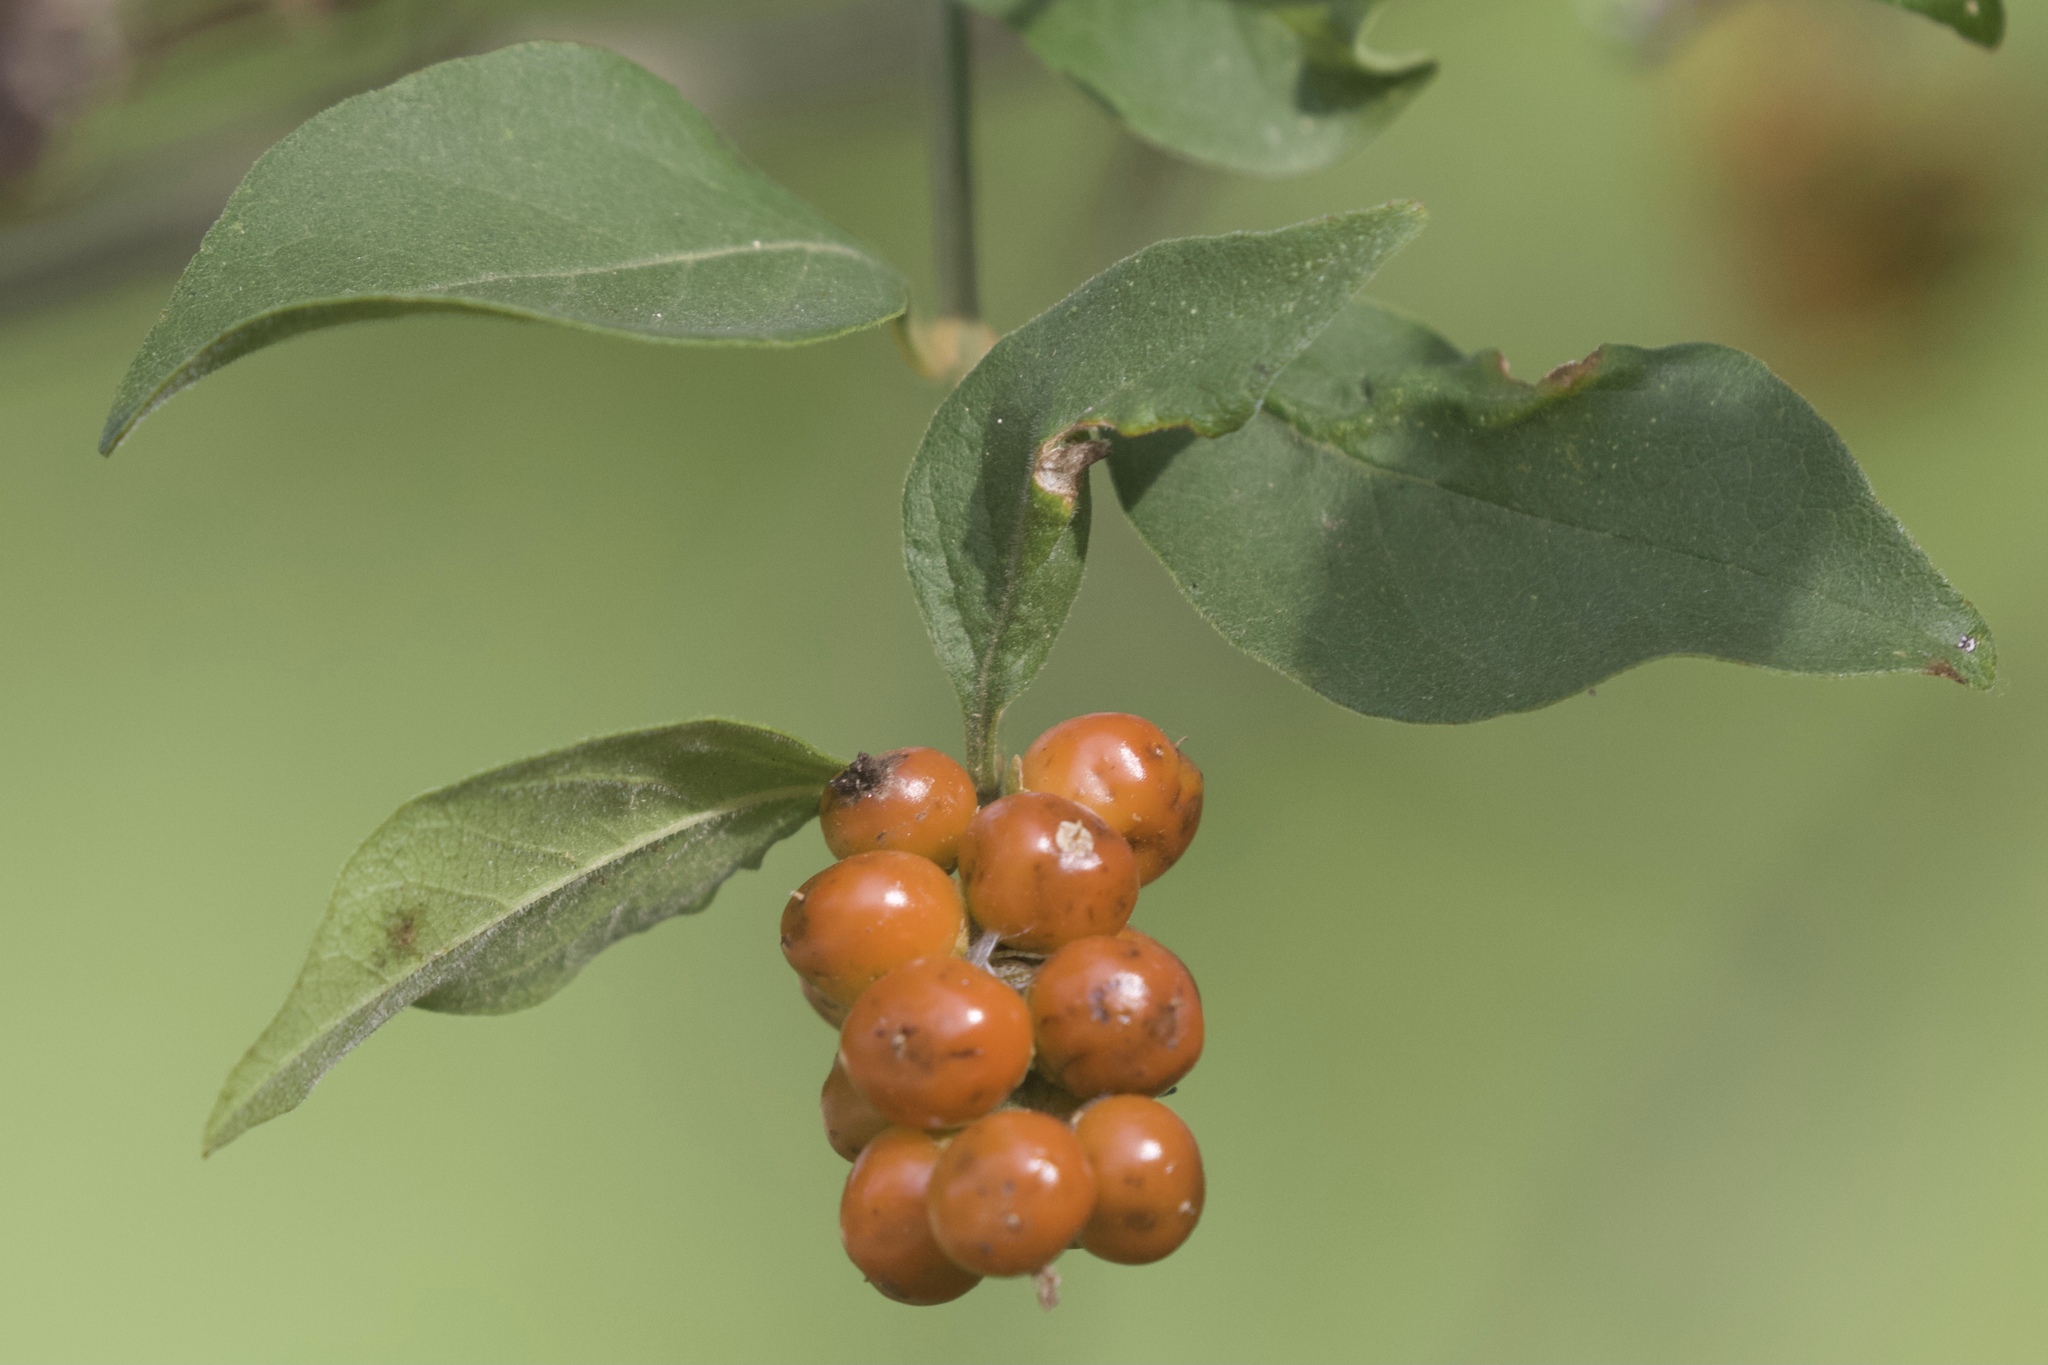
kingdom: Plantae
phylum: Tracheophyta
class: Magnoliopsida
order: Lamiales
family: Verbenaceae
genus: Citharexylum
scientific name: Citharexylum berlandieri
